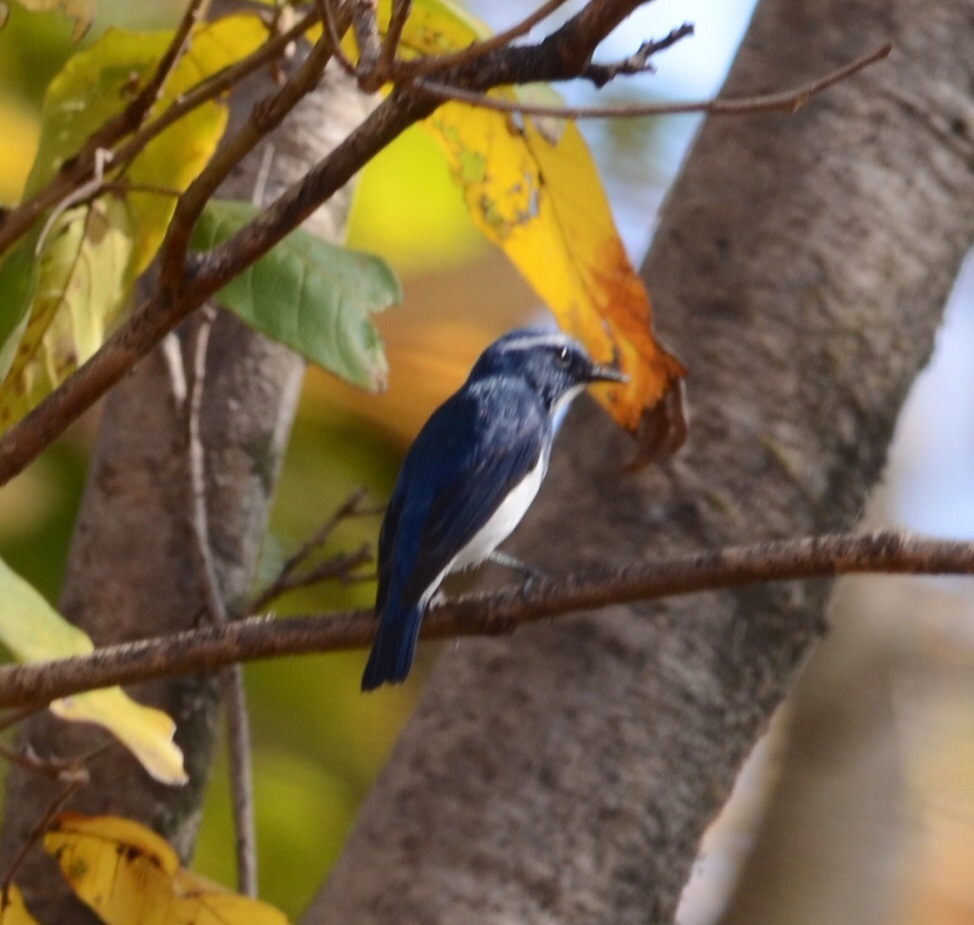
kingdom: Animalia
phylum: Chordata
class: Aves
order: Passeriformes
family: Muscicapidae
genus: Ficedula
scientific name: Ficedula superciliaris
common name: Ultramarine flycatcher
